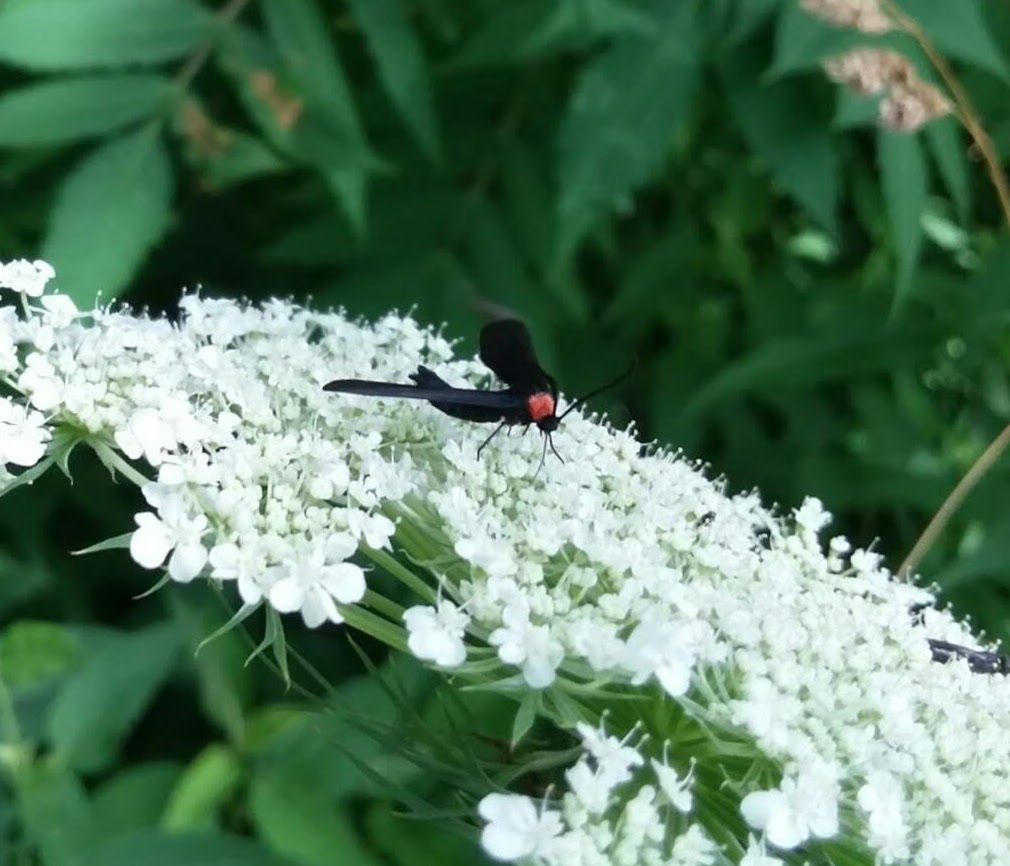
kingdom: Animalia
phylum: Arthropoda
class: Insecta
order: Lepidoptera
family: Zygaenidae
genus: Harrisina
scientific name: Harrisina americana
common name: Grapeleaf skeletonizer moth
